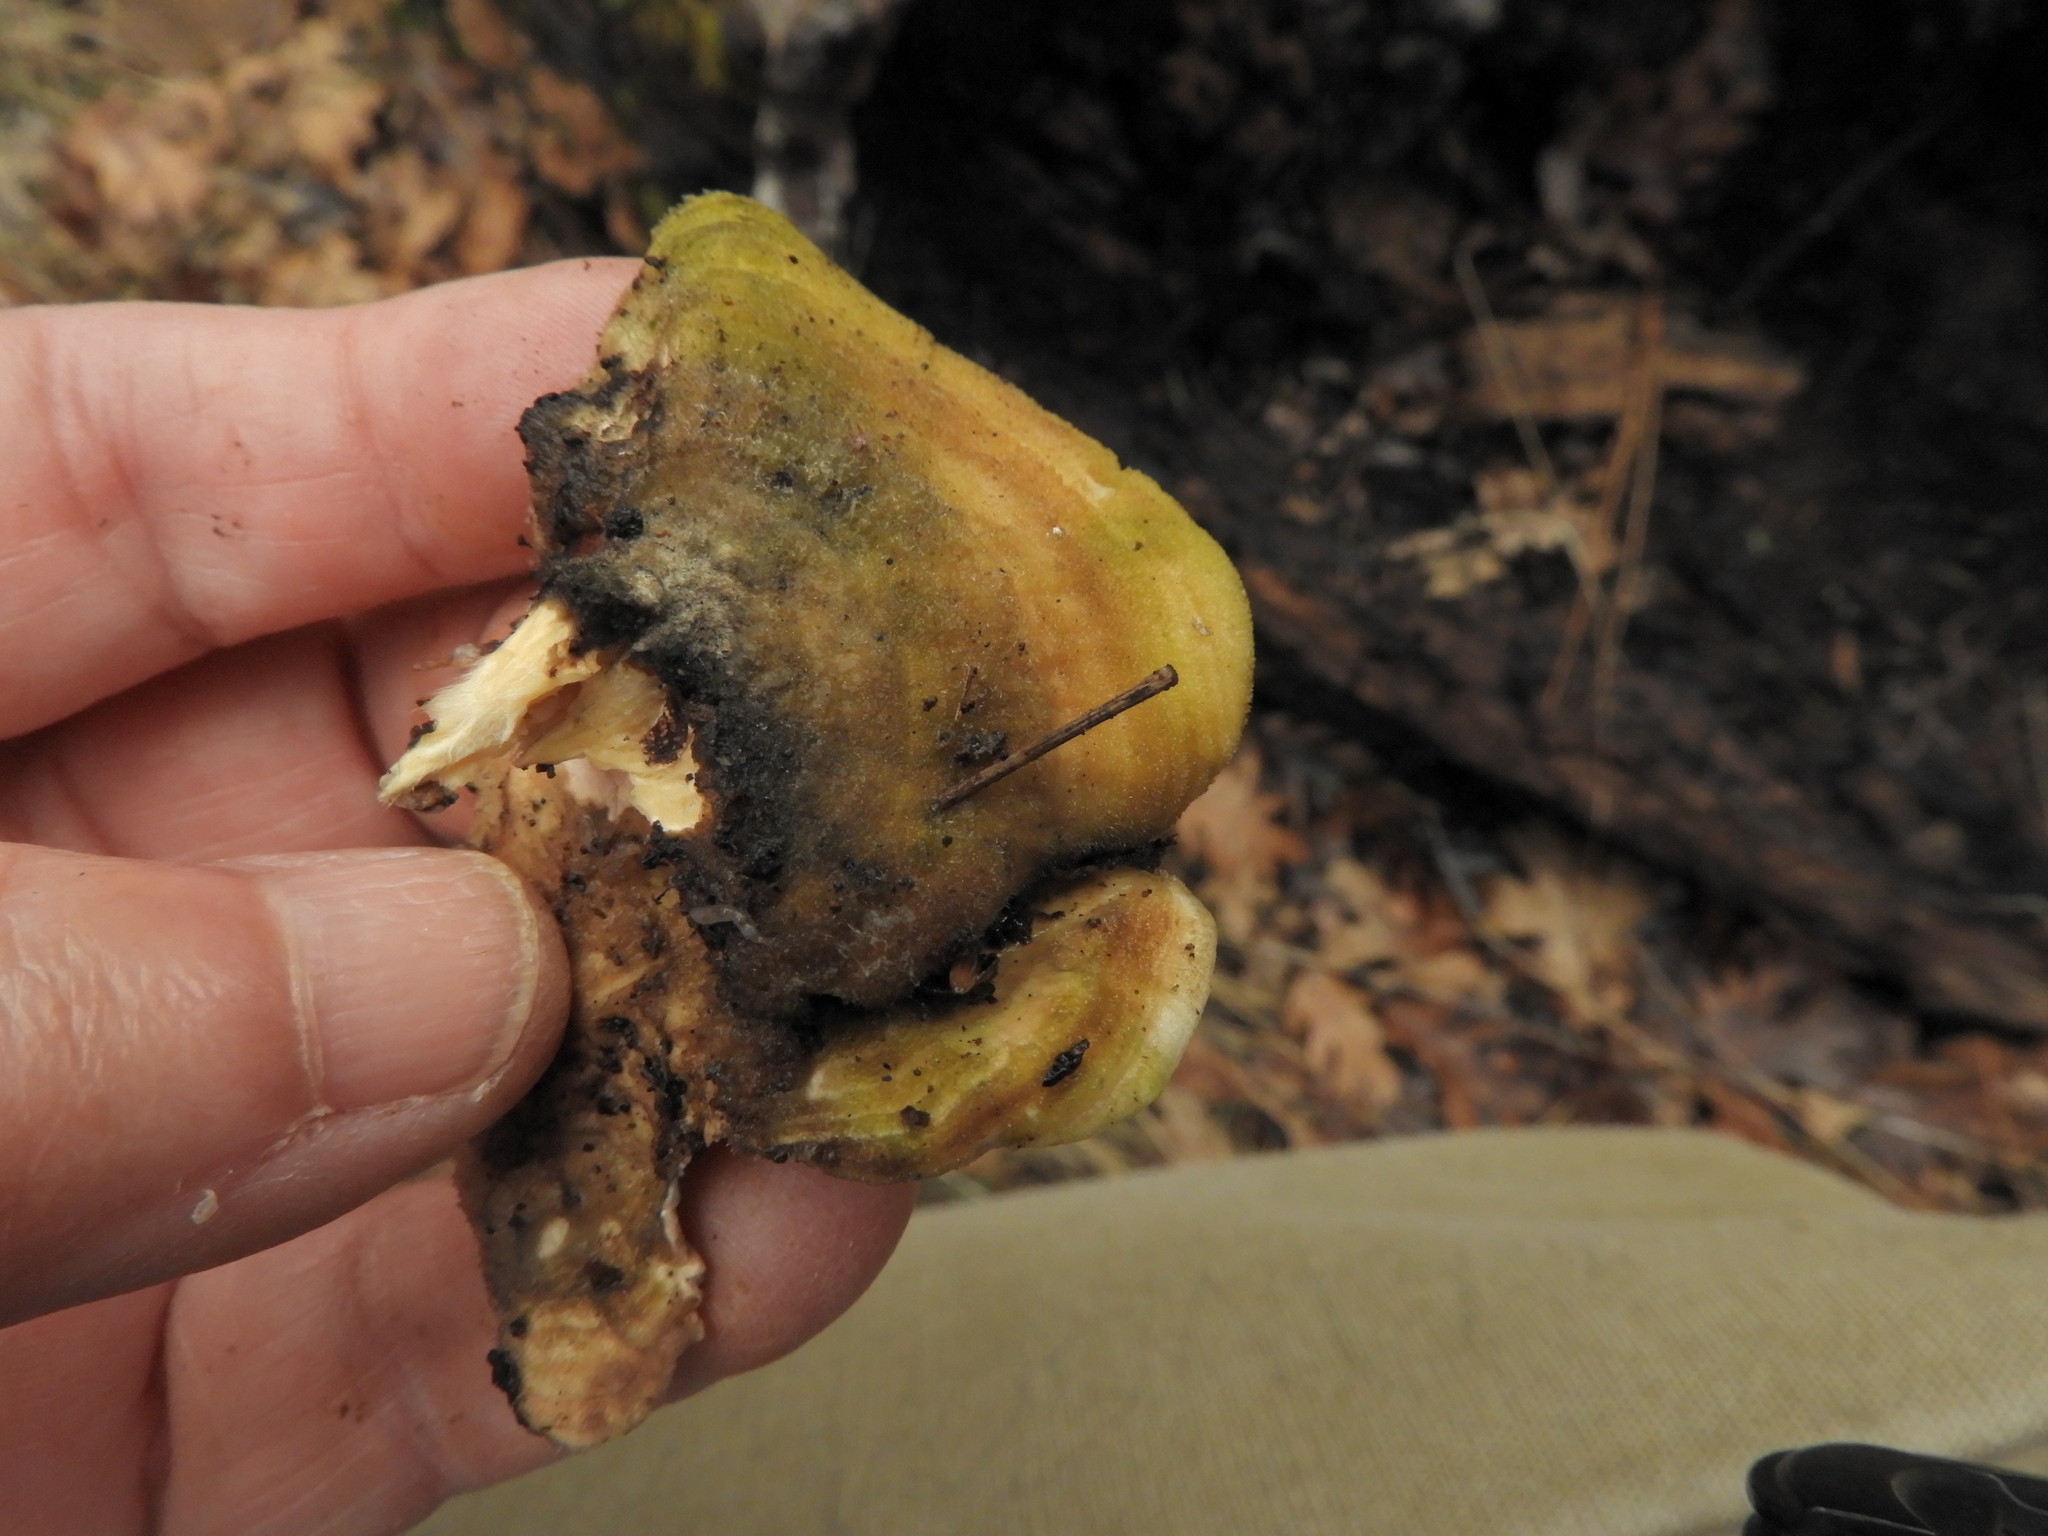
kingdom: Fungi
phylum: Basidiomycota
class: Agaricomycetes
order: Polyporales
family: Polyporaceae
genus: Lenzites
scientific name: Lenzites betulinus
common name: Birch mazegill
